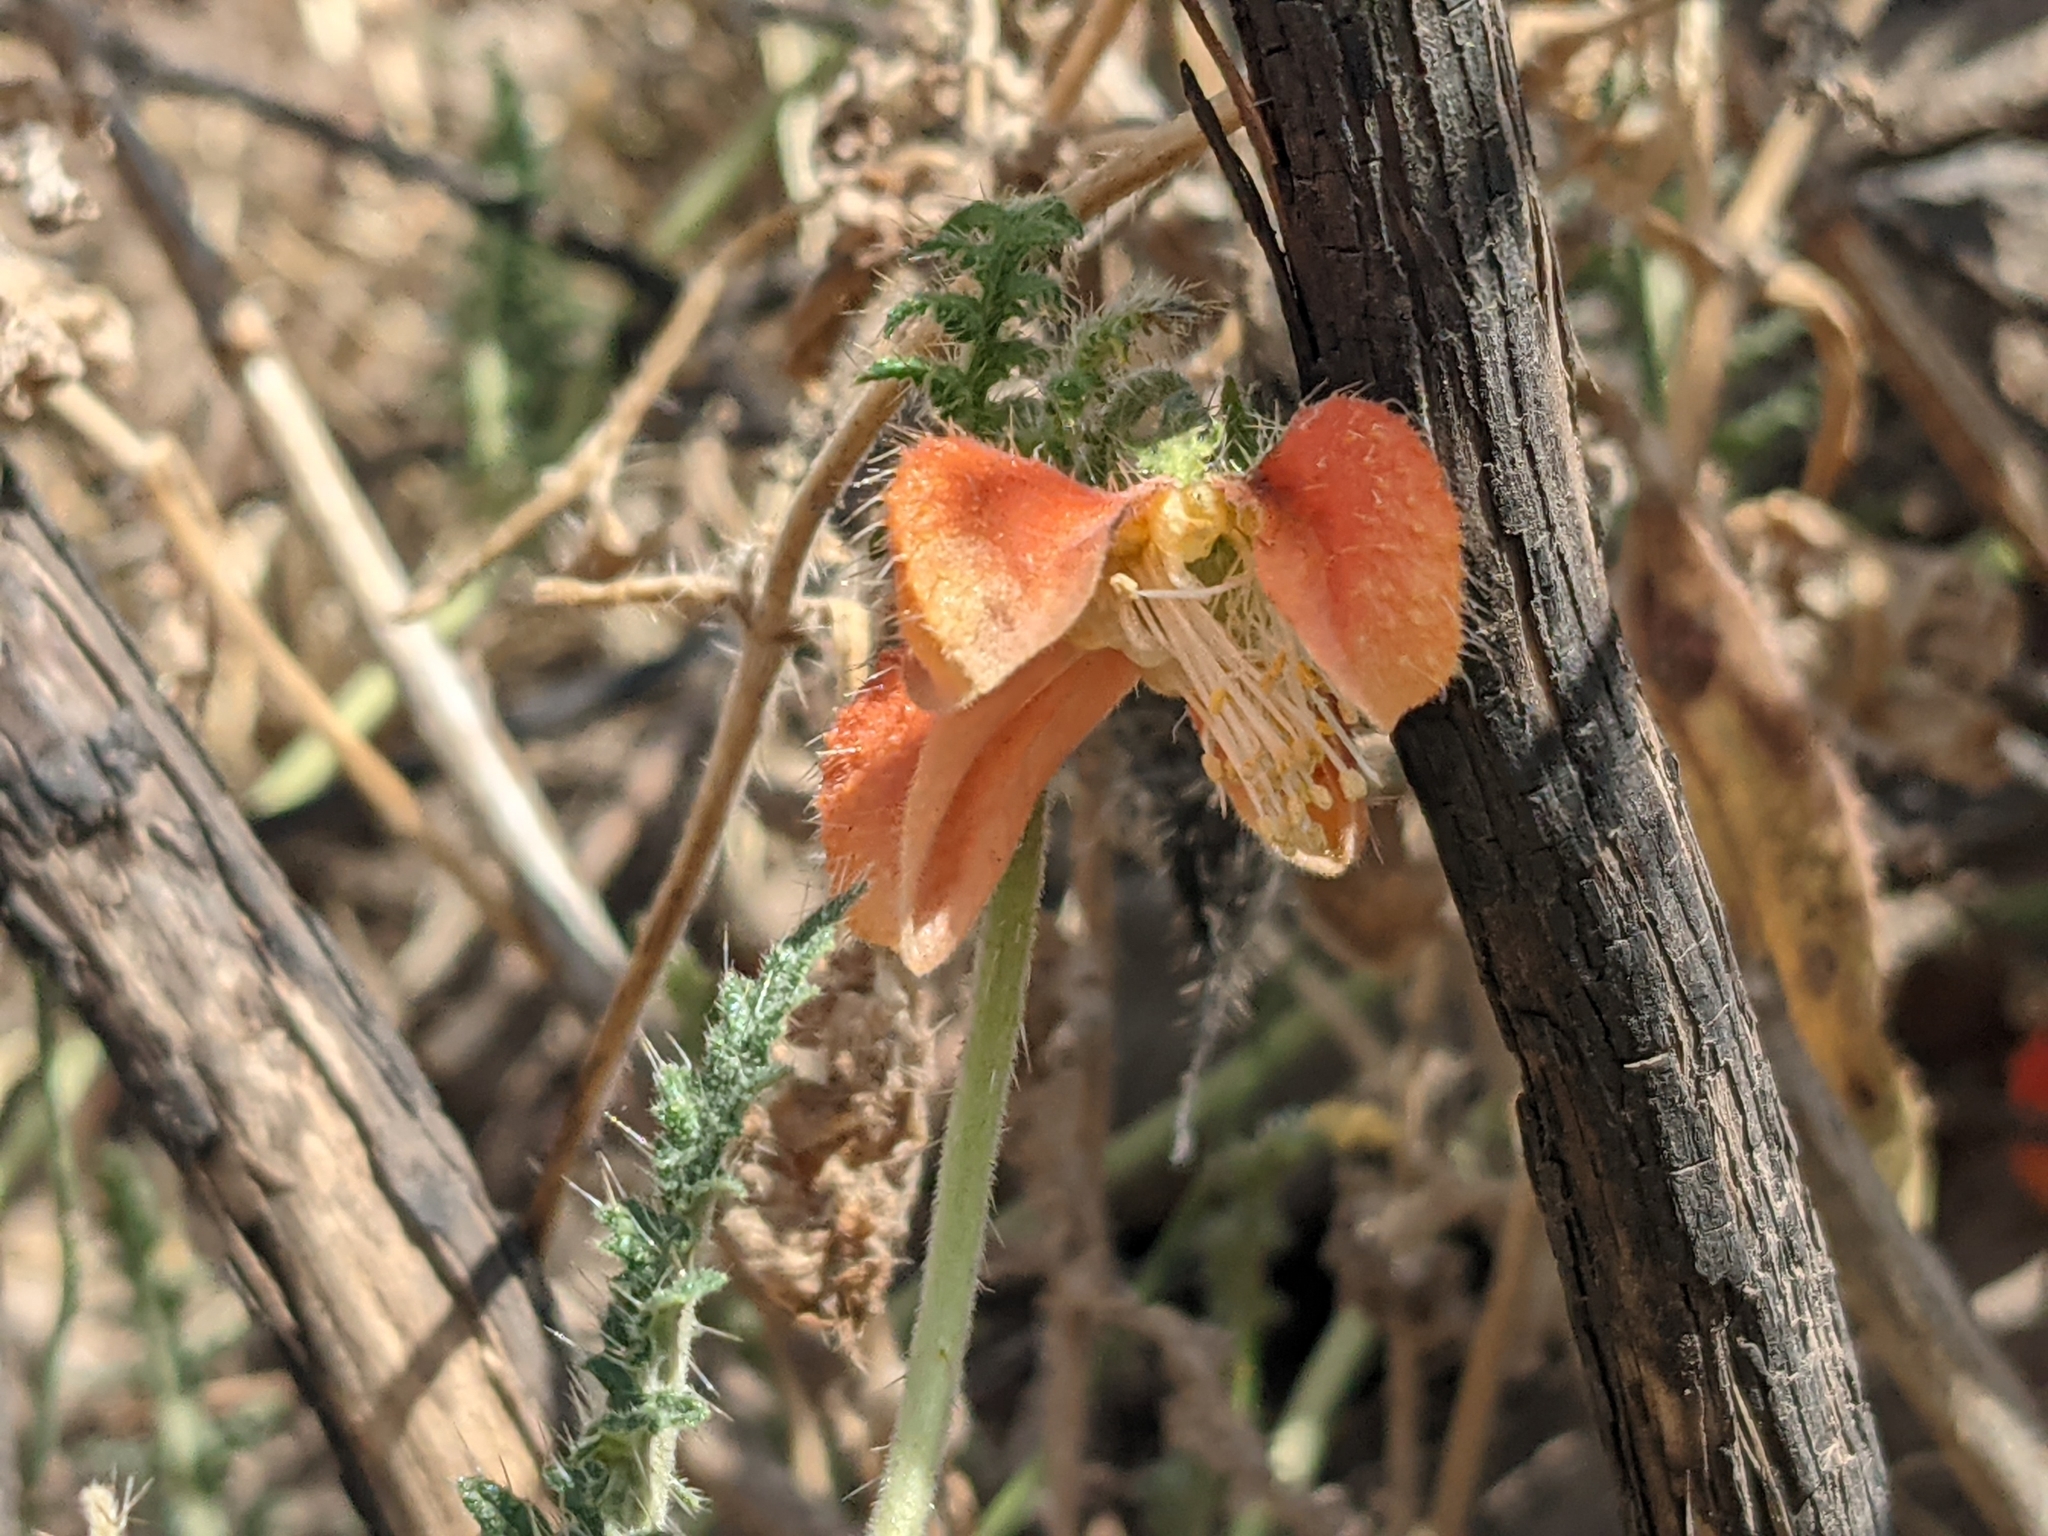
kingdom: Plantae
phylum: Tracheophyta
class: Magnoliopsida
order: Cornales
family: Loasaceae
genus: Caiophora
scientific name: Caiophora cirsiifolia
